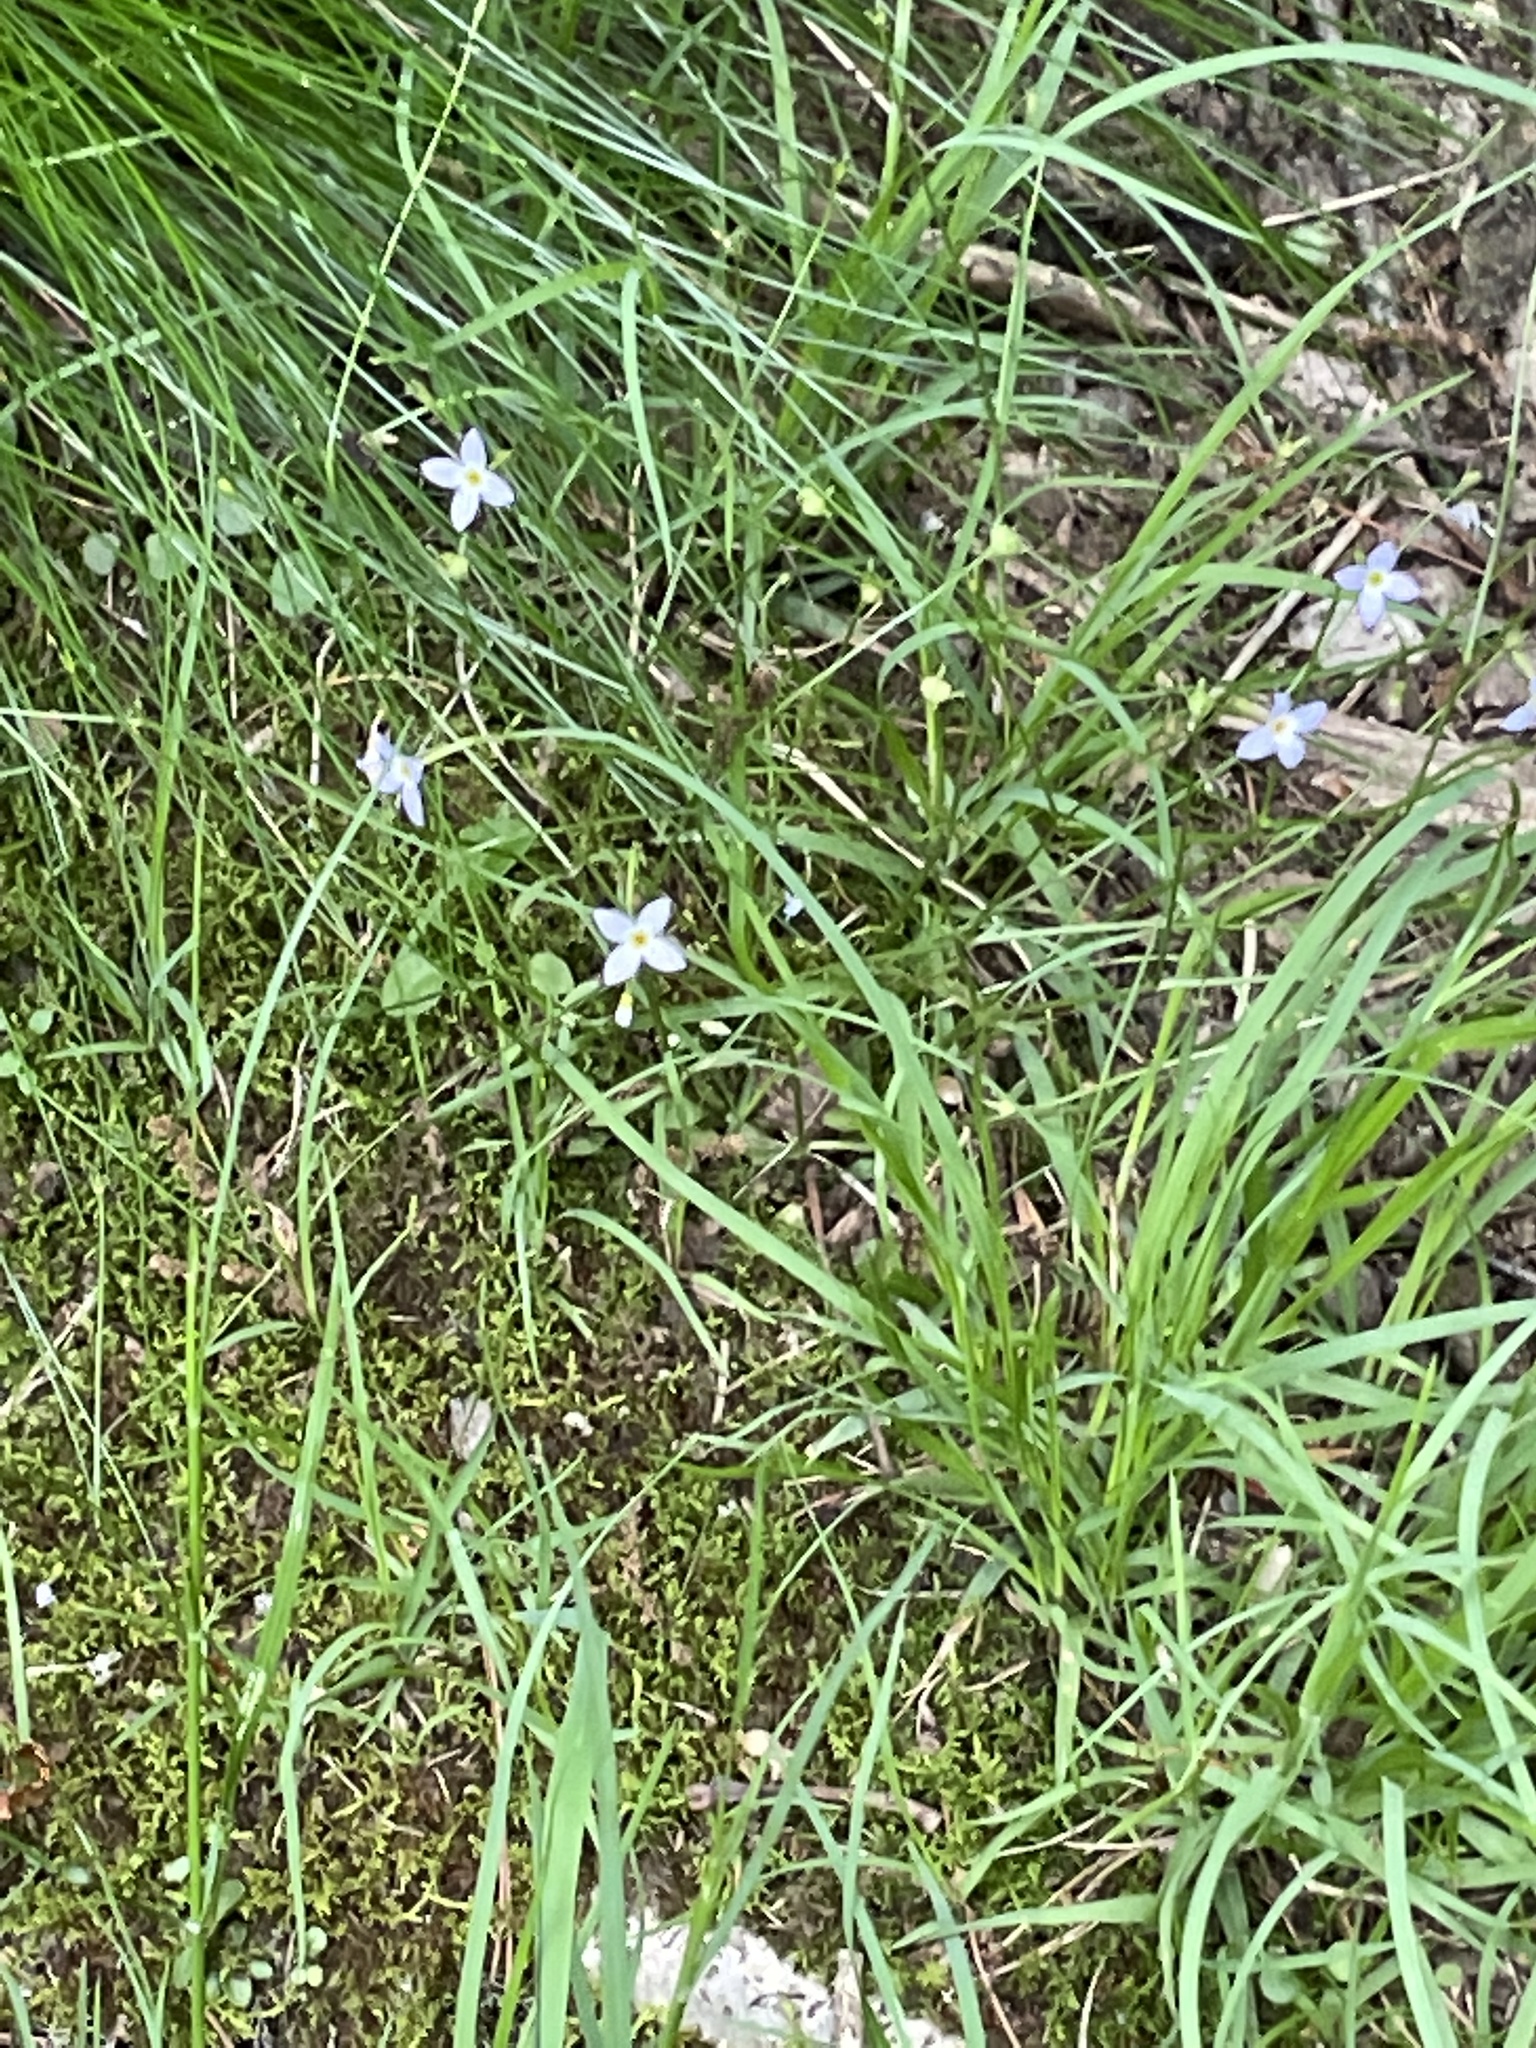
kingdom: Plantae
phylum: Tracheophyta
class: Magnoliopsida
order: Gentianales
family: Rubiaceae
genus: Houstonia
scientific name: Houstonia caerulea
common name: Bluets
